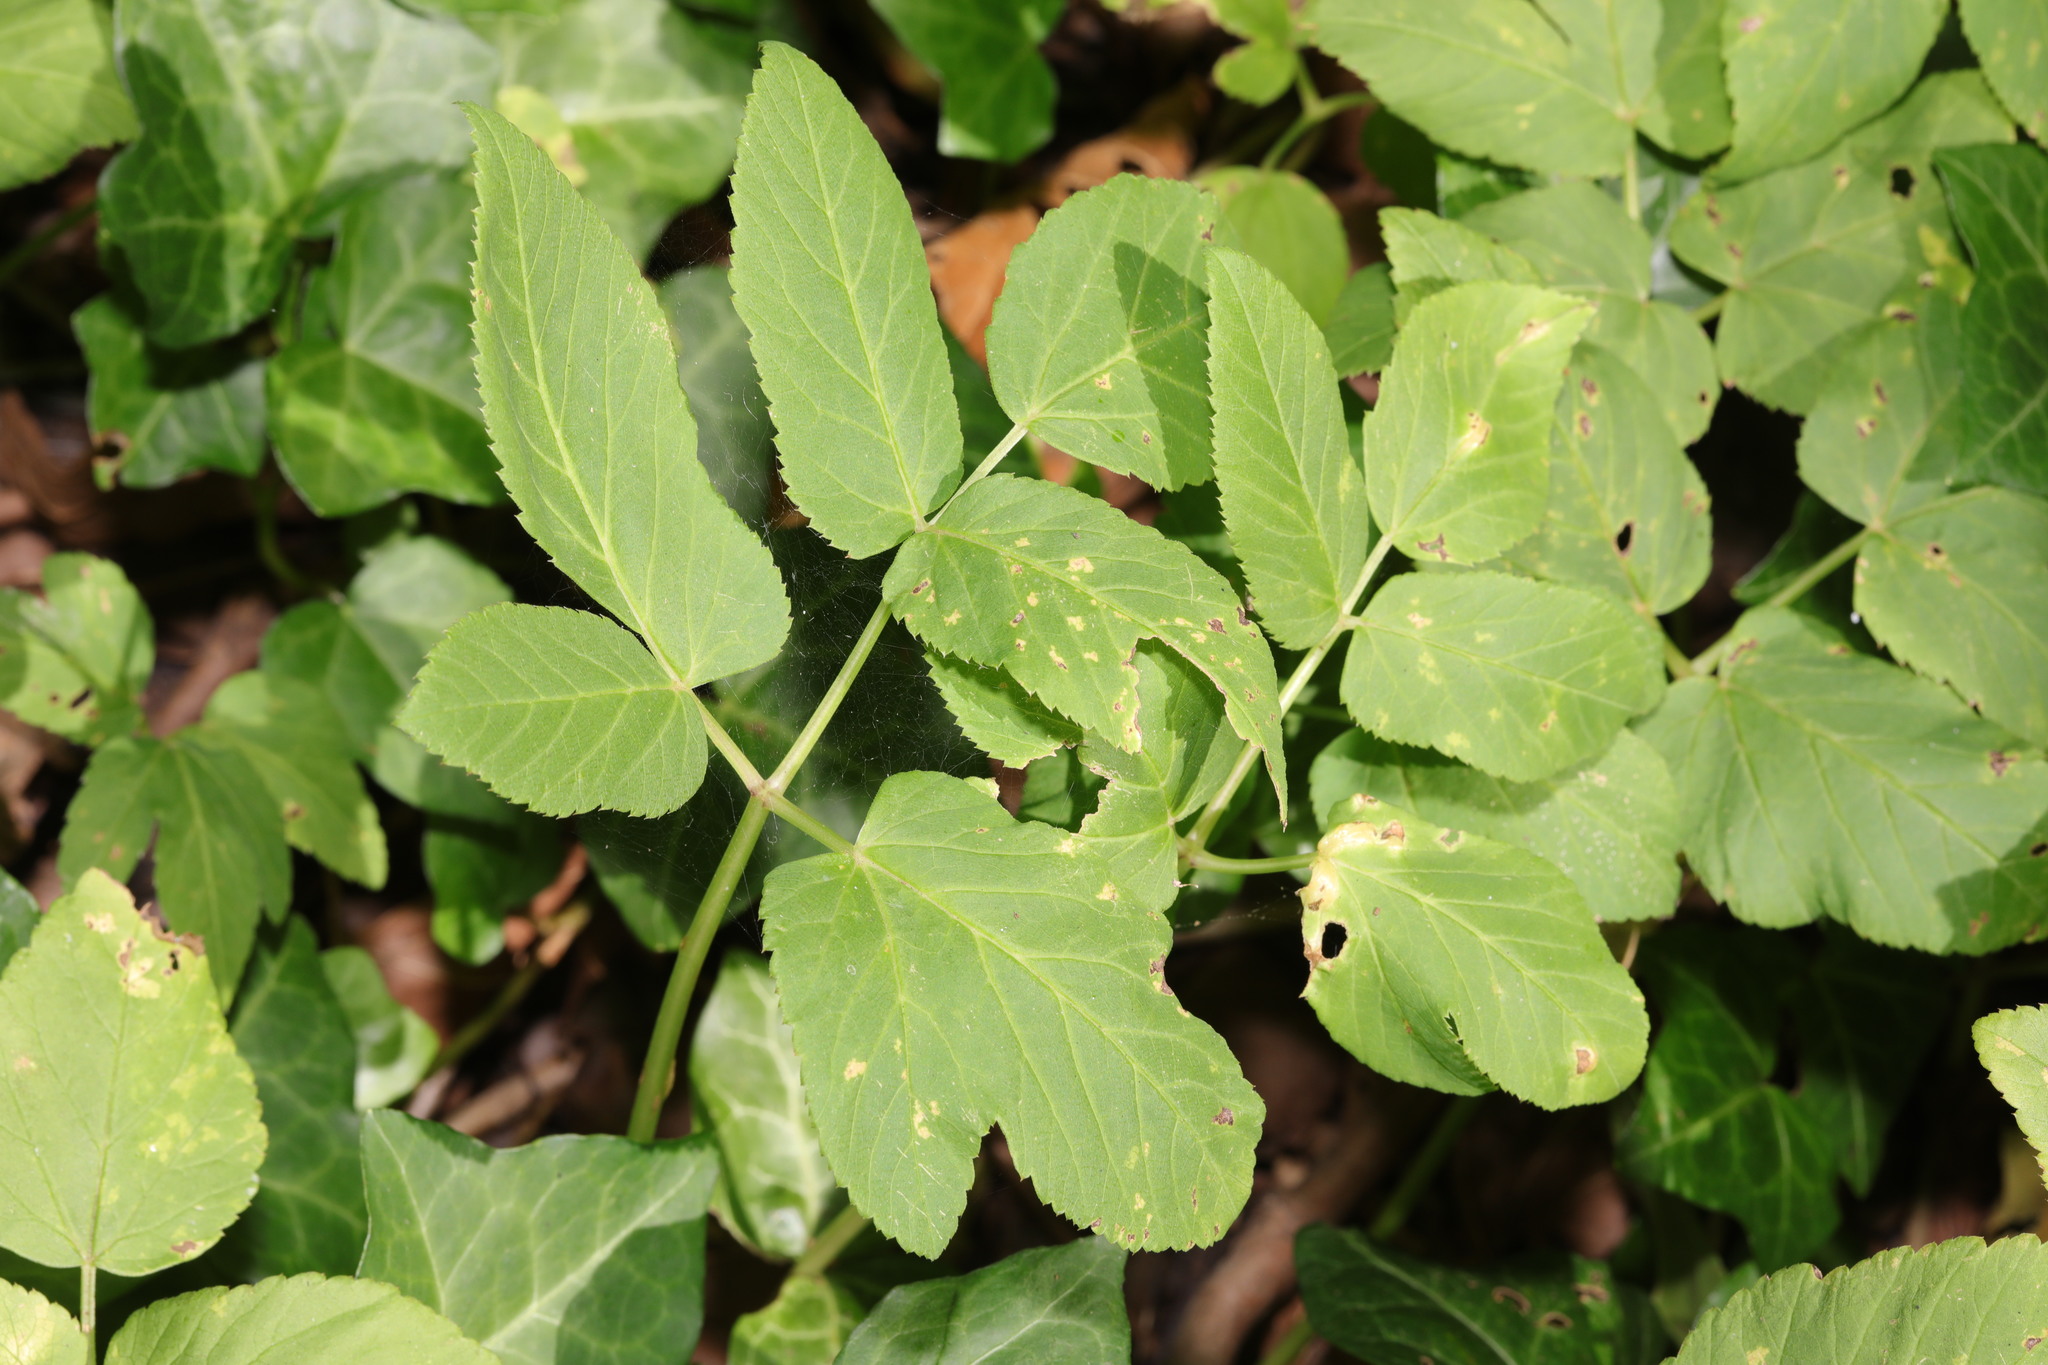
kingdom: Plantae
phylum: Tracheophyta
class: Magnoliopsida
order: Apiales
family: Apiaceae
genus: Aegopodium
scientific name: Aegopodium podagraria
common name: Ground-elder
